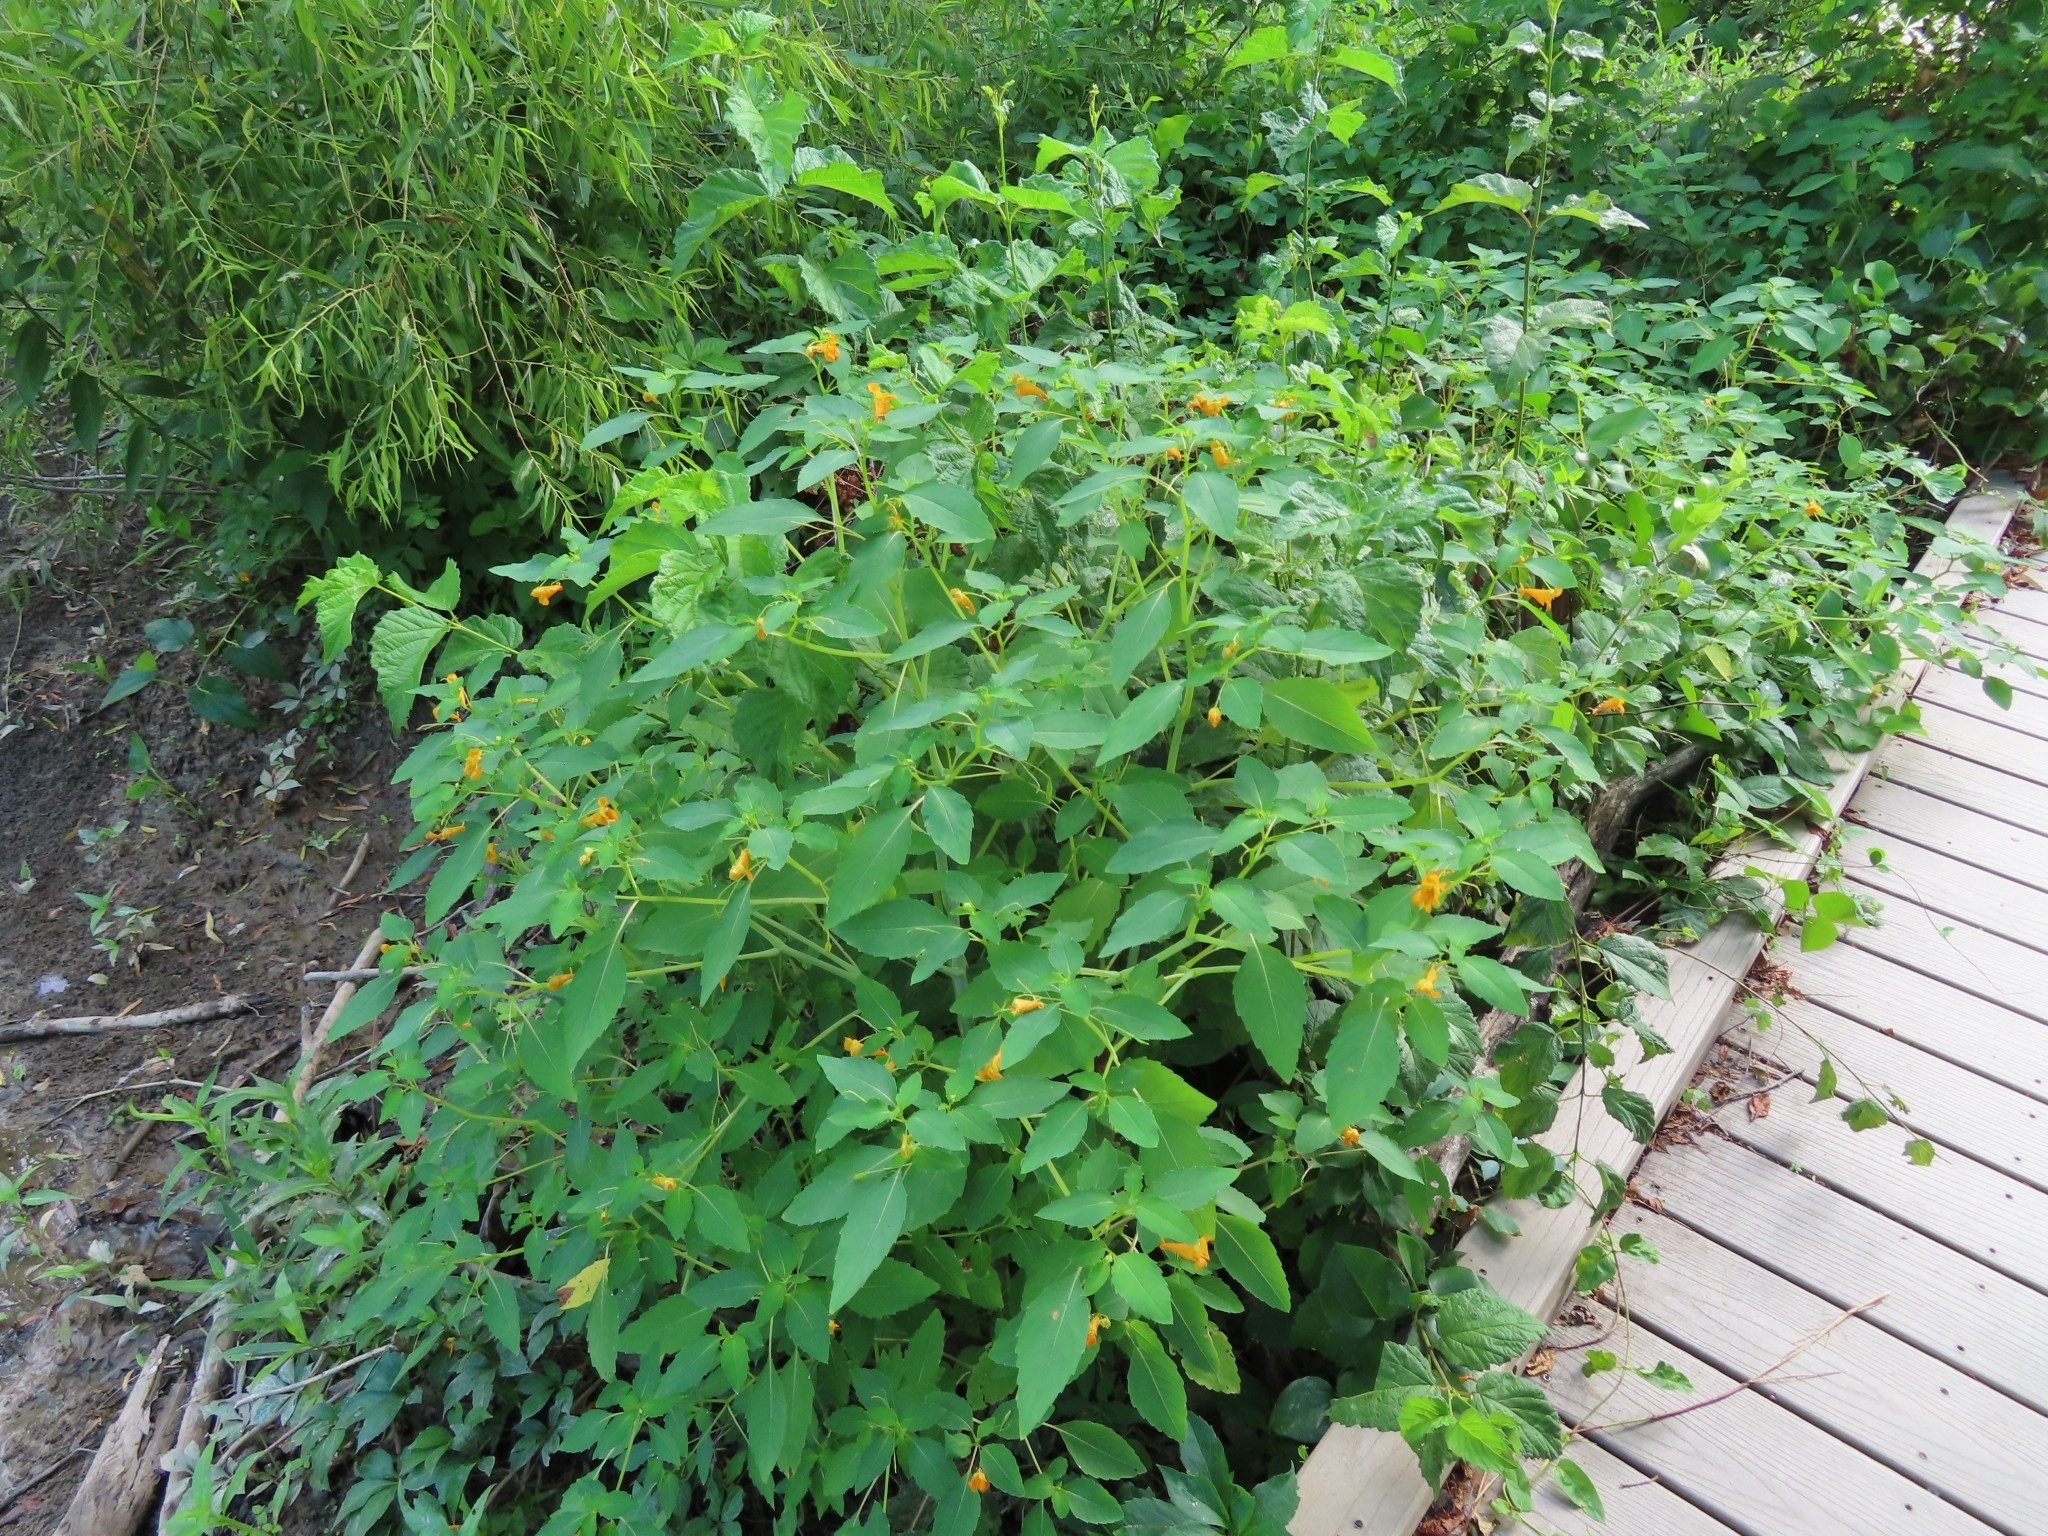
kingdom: Plantae
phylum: Tracheophyta
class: Magnoliopsida
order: Ericales
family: Balsaminaceae
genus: Impatiens
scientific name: Impatiens capensis
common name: Orange balsam
